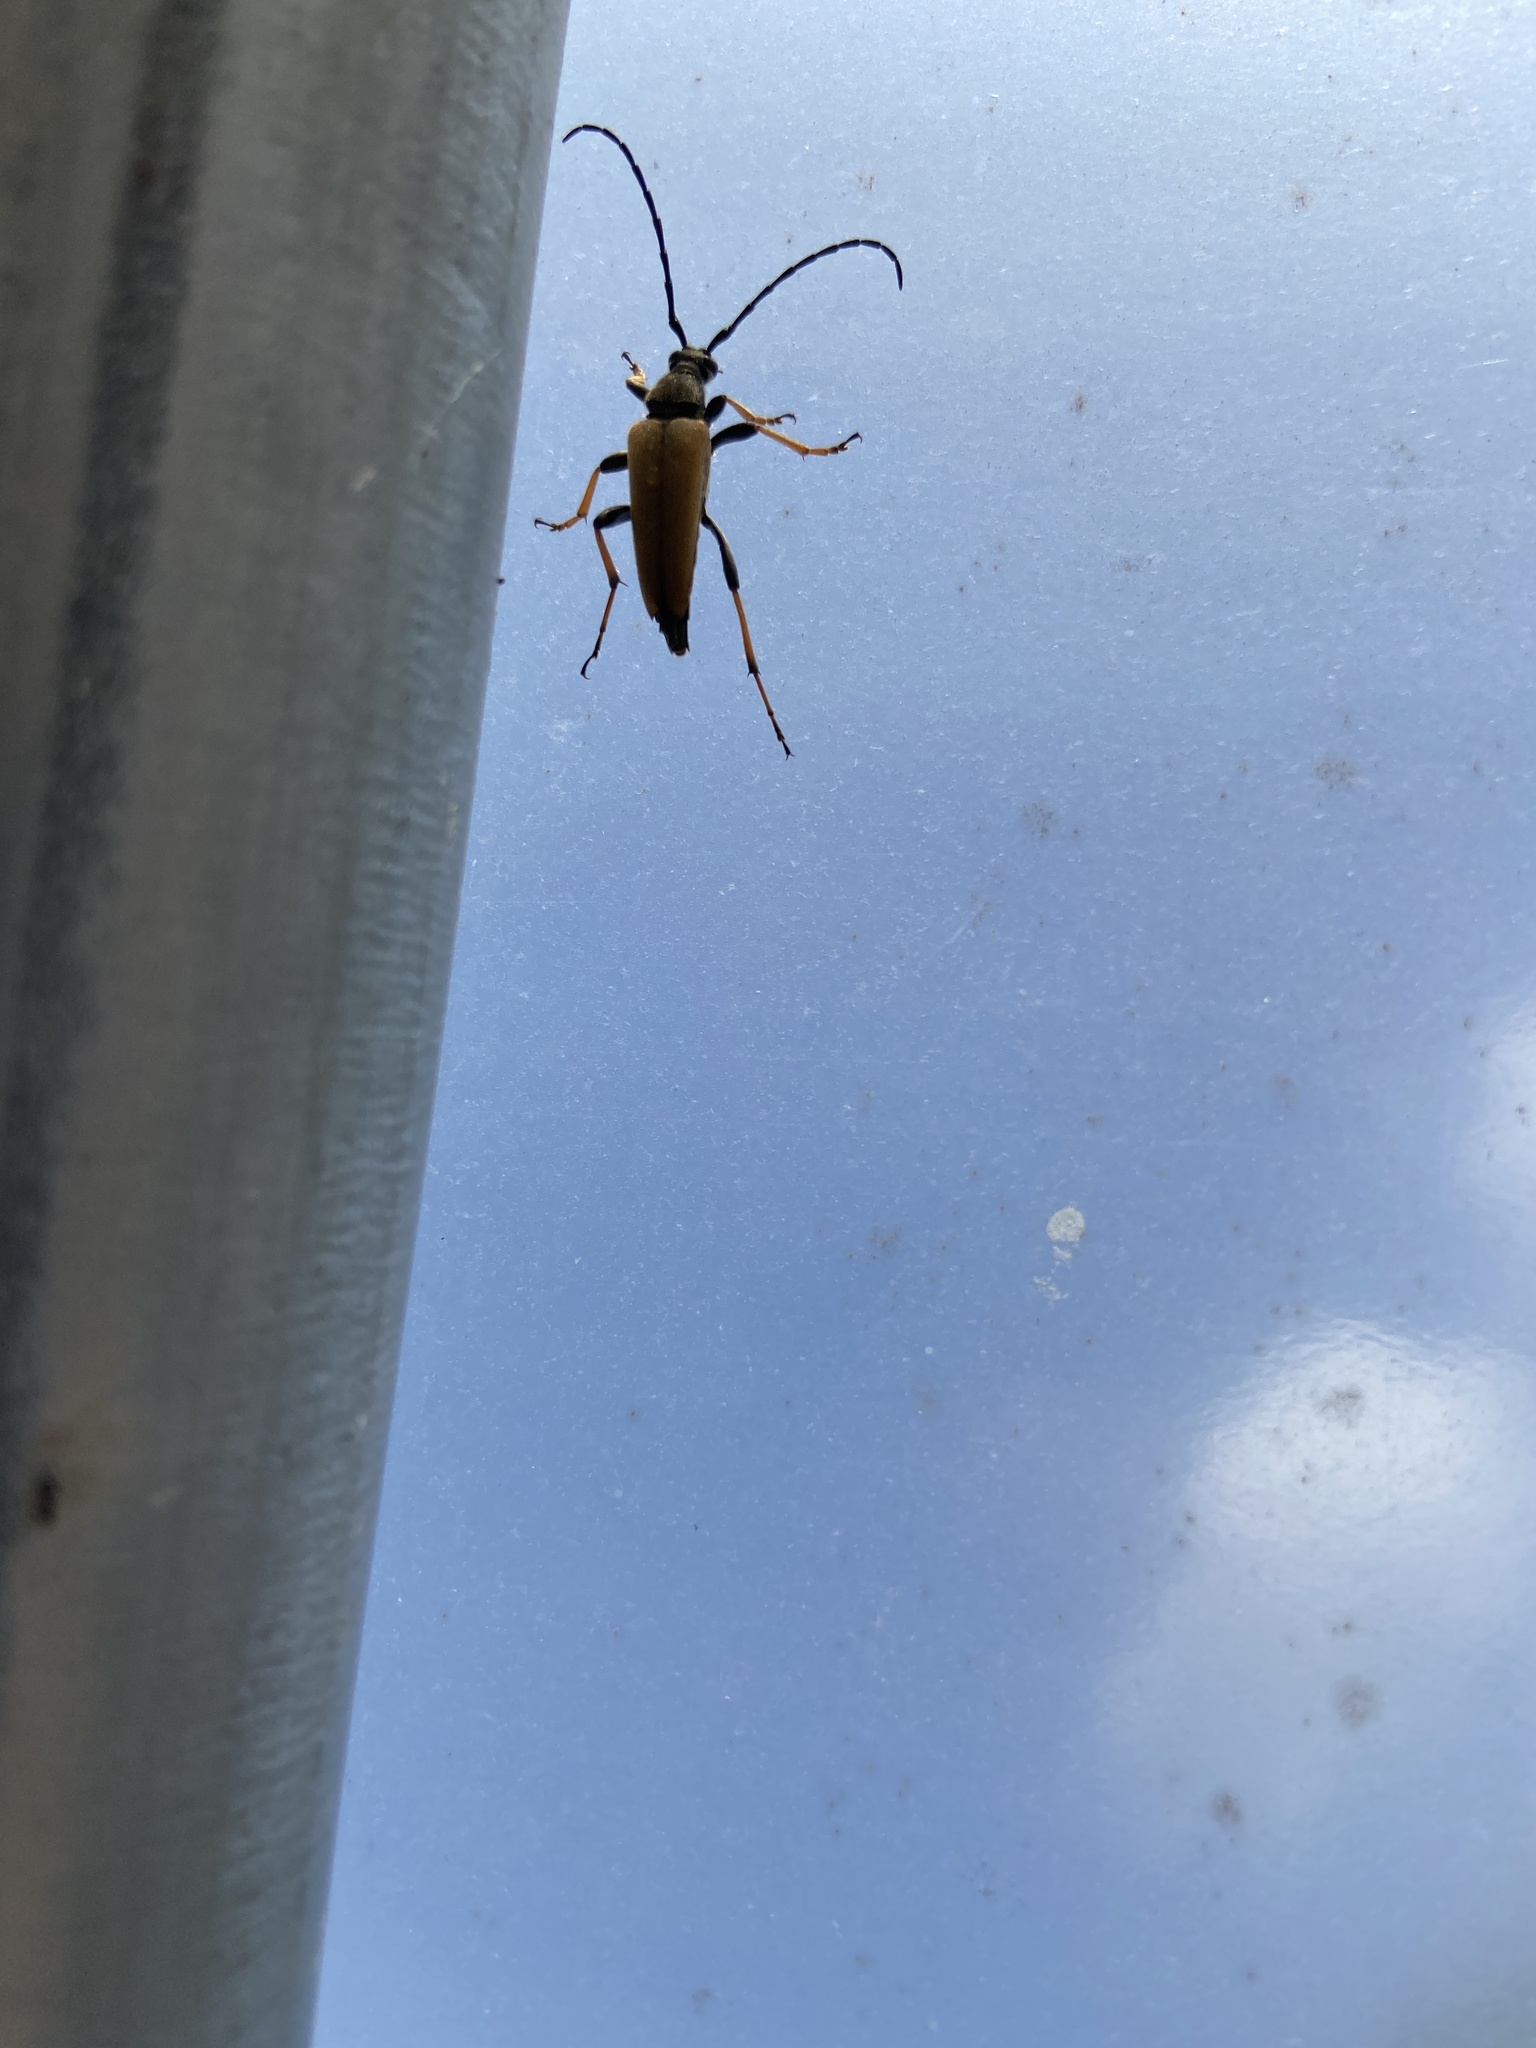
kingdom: Animalia
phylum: Arthropoda
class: Insecta
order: Coleoptera
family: Cerambycidae
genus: Stictoleptura
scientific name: Stictoleptura rubra
